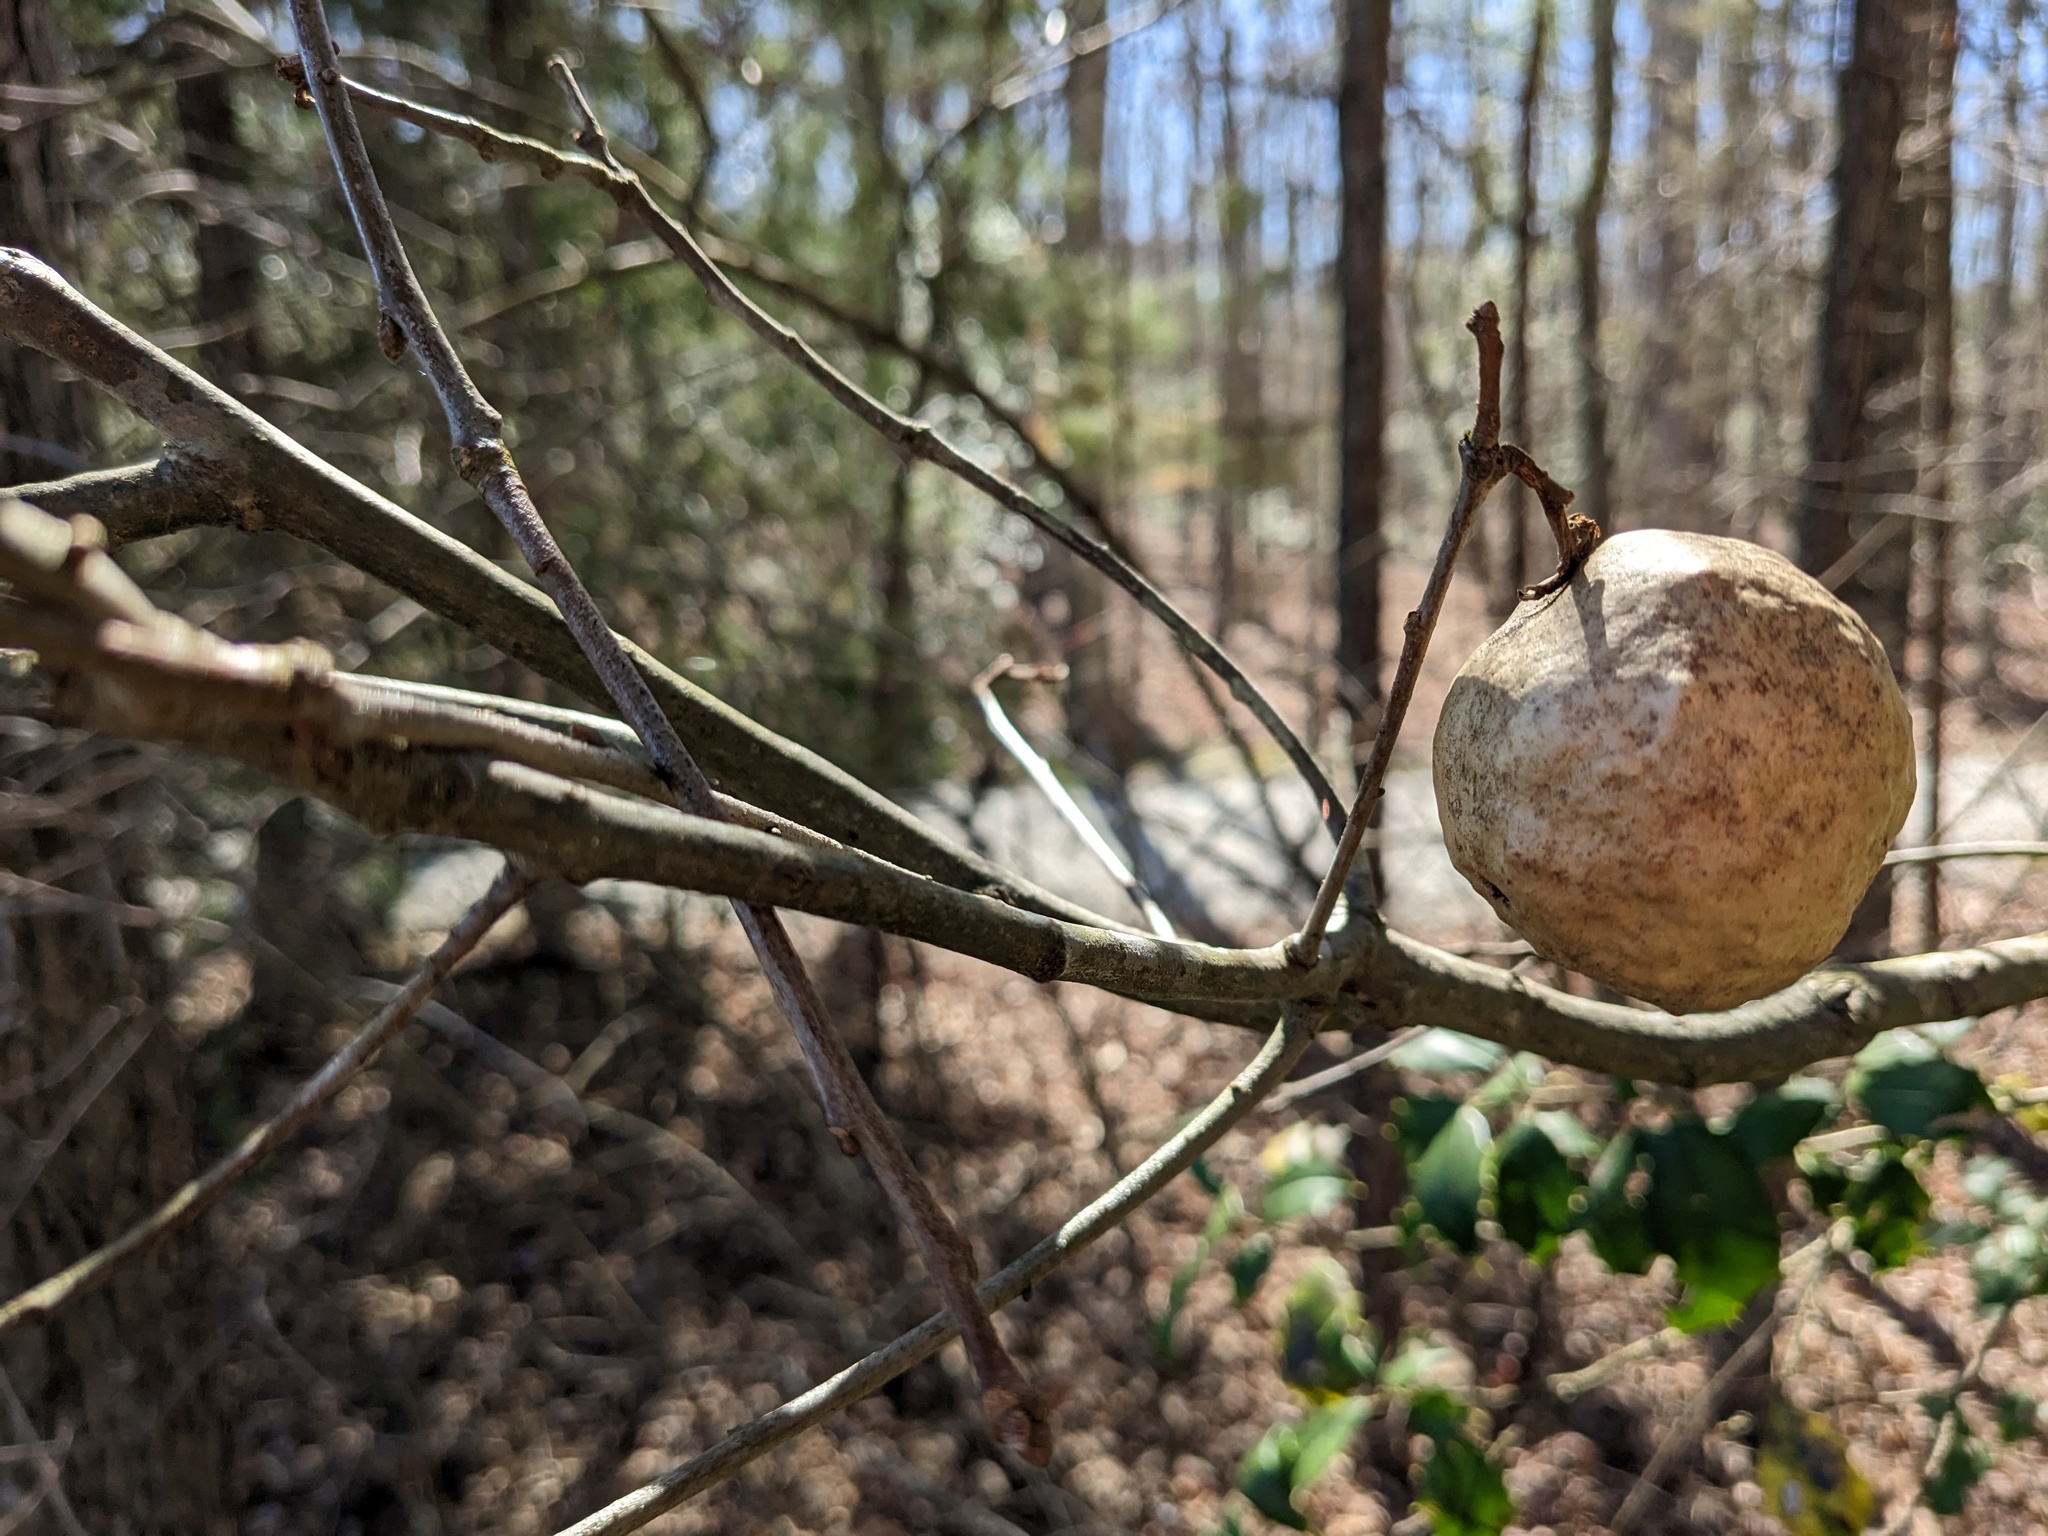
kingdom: Animalia
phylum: Arthropoda
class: Insecta
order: Hymenoptera
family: Cynipidae
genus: Amphibolips
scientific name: Amphibolips
